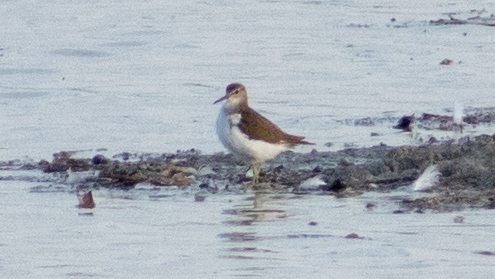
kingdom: Animalia
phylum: Chordata
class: Aves
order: Charadriiformes
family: Scolopacidae
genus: Actitis
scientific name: Actitis hypoleucos
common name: Common sandpiper
